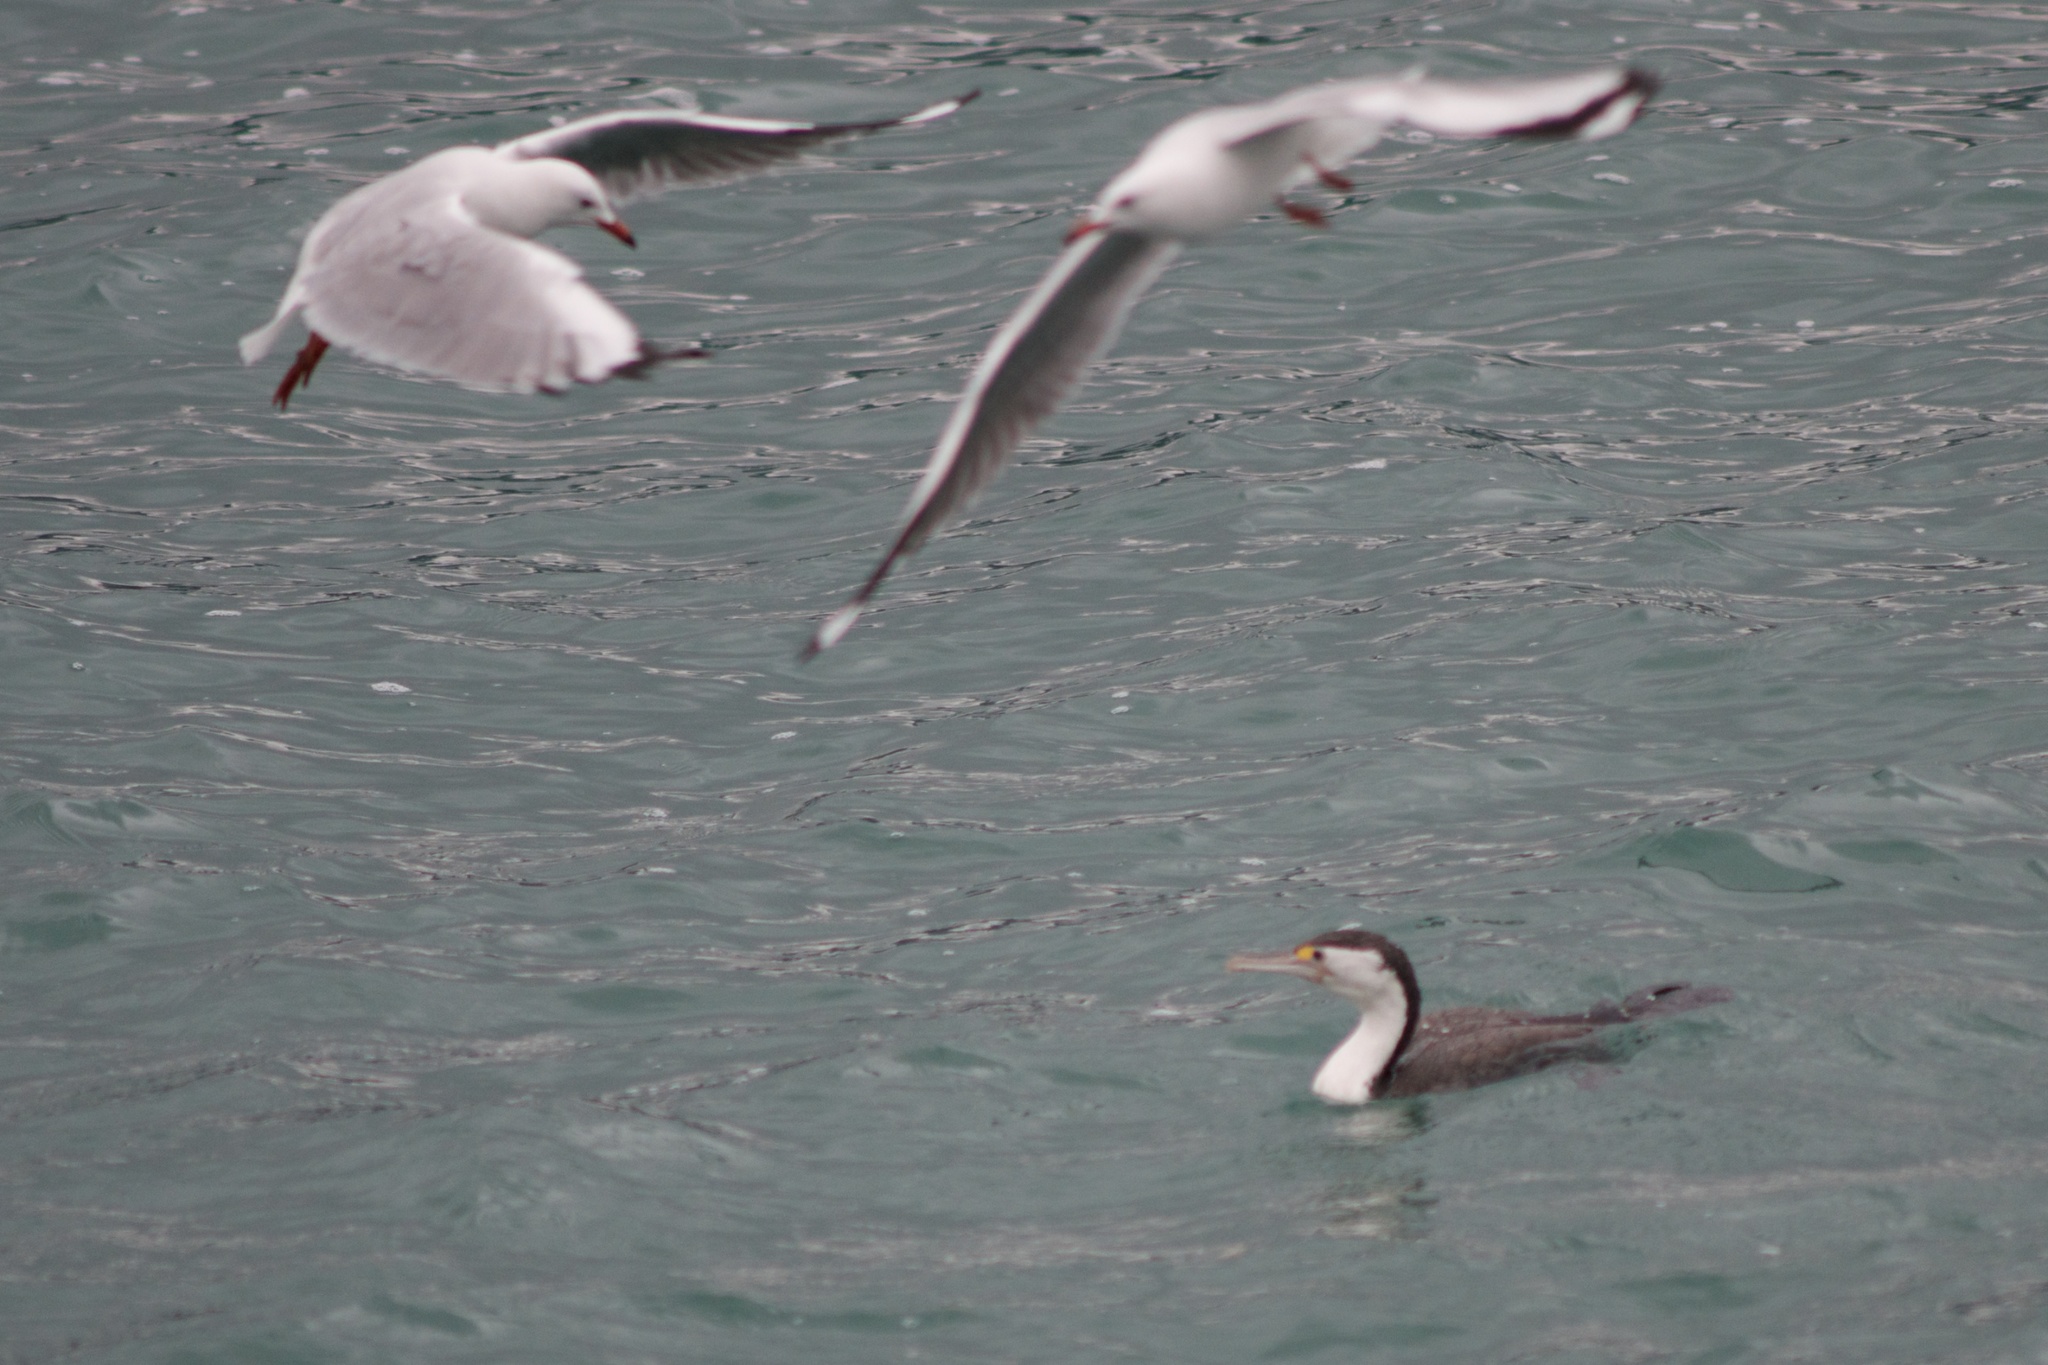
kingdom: Animalia
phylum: Chordata
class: Aves
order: Suliformes
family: Phalacrocoracidae
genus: Phalacrocorax
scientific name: Phalacrocorax varius
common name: Pied cormorant
